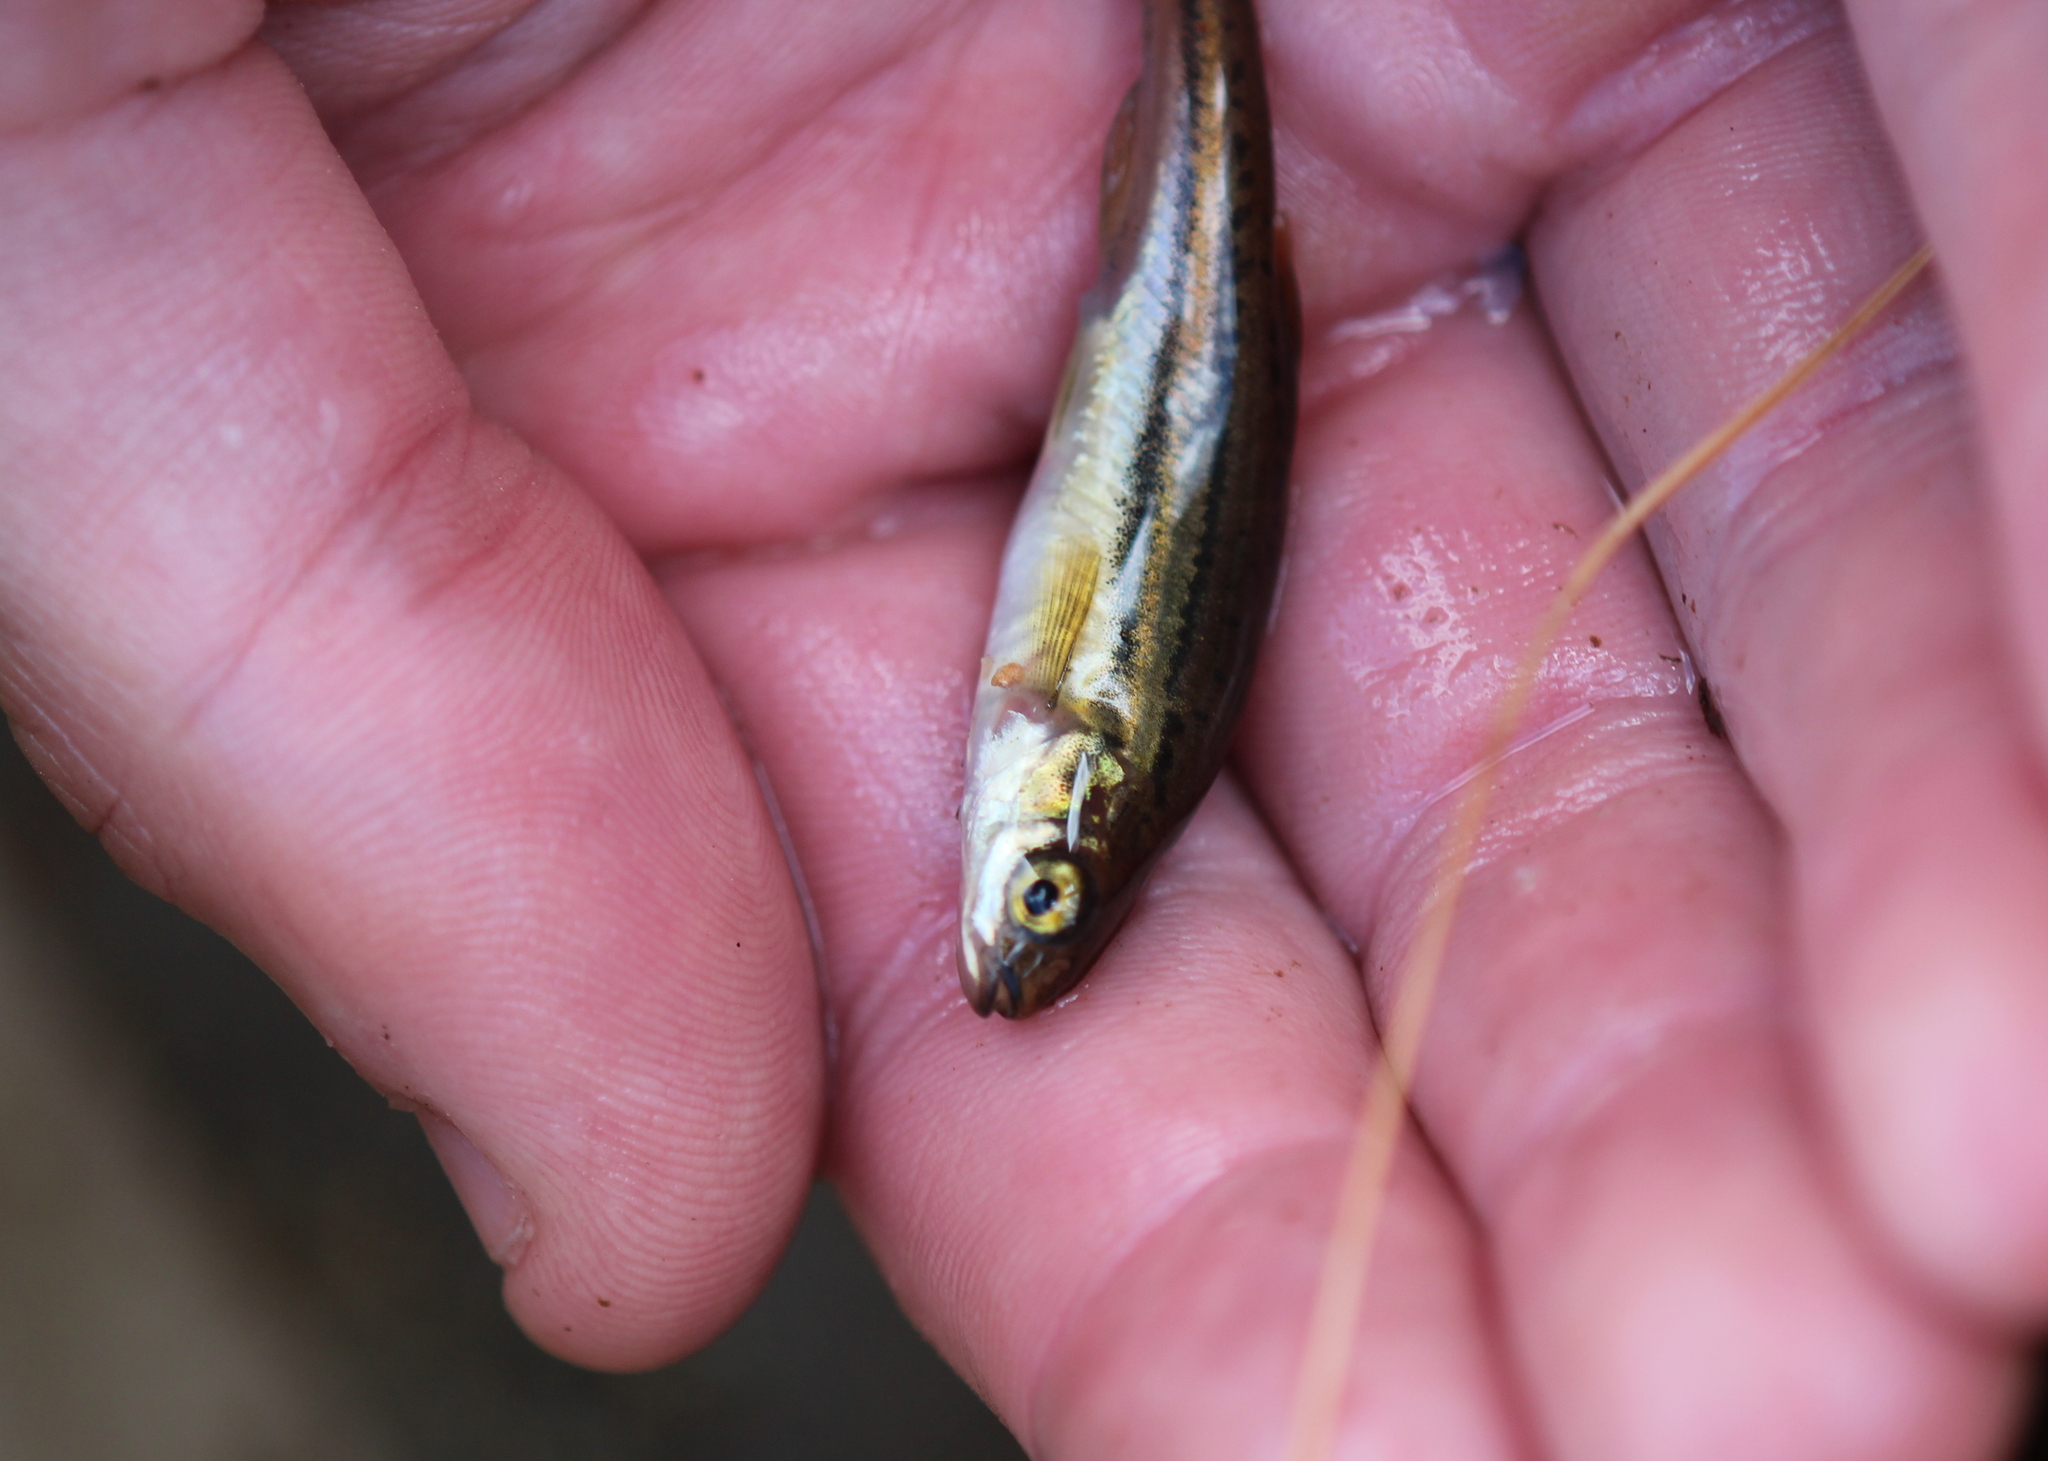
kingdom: Animalia
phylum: Chordata
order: Cypriniformes
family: Cyprinidae
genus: Chrosomus
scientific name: Chrosomus eos
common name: Northern redbelly dace
